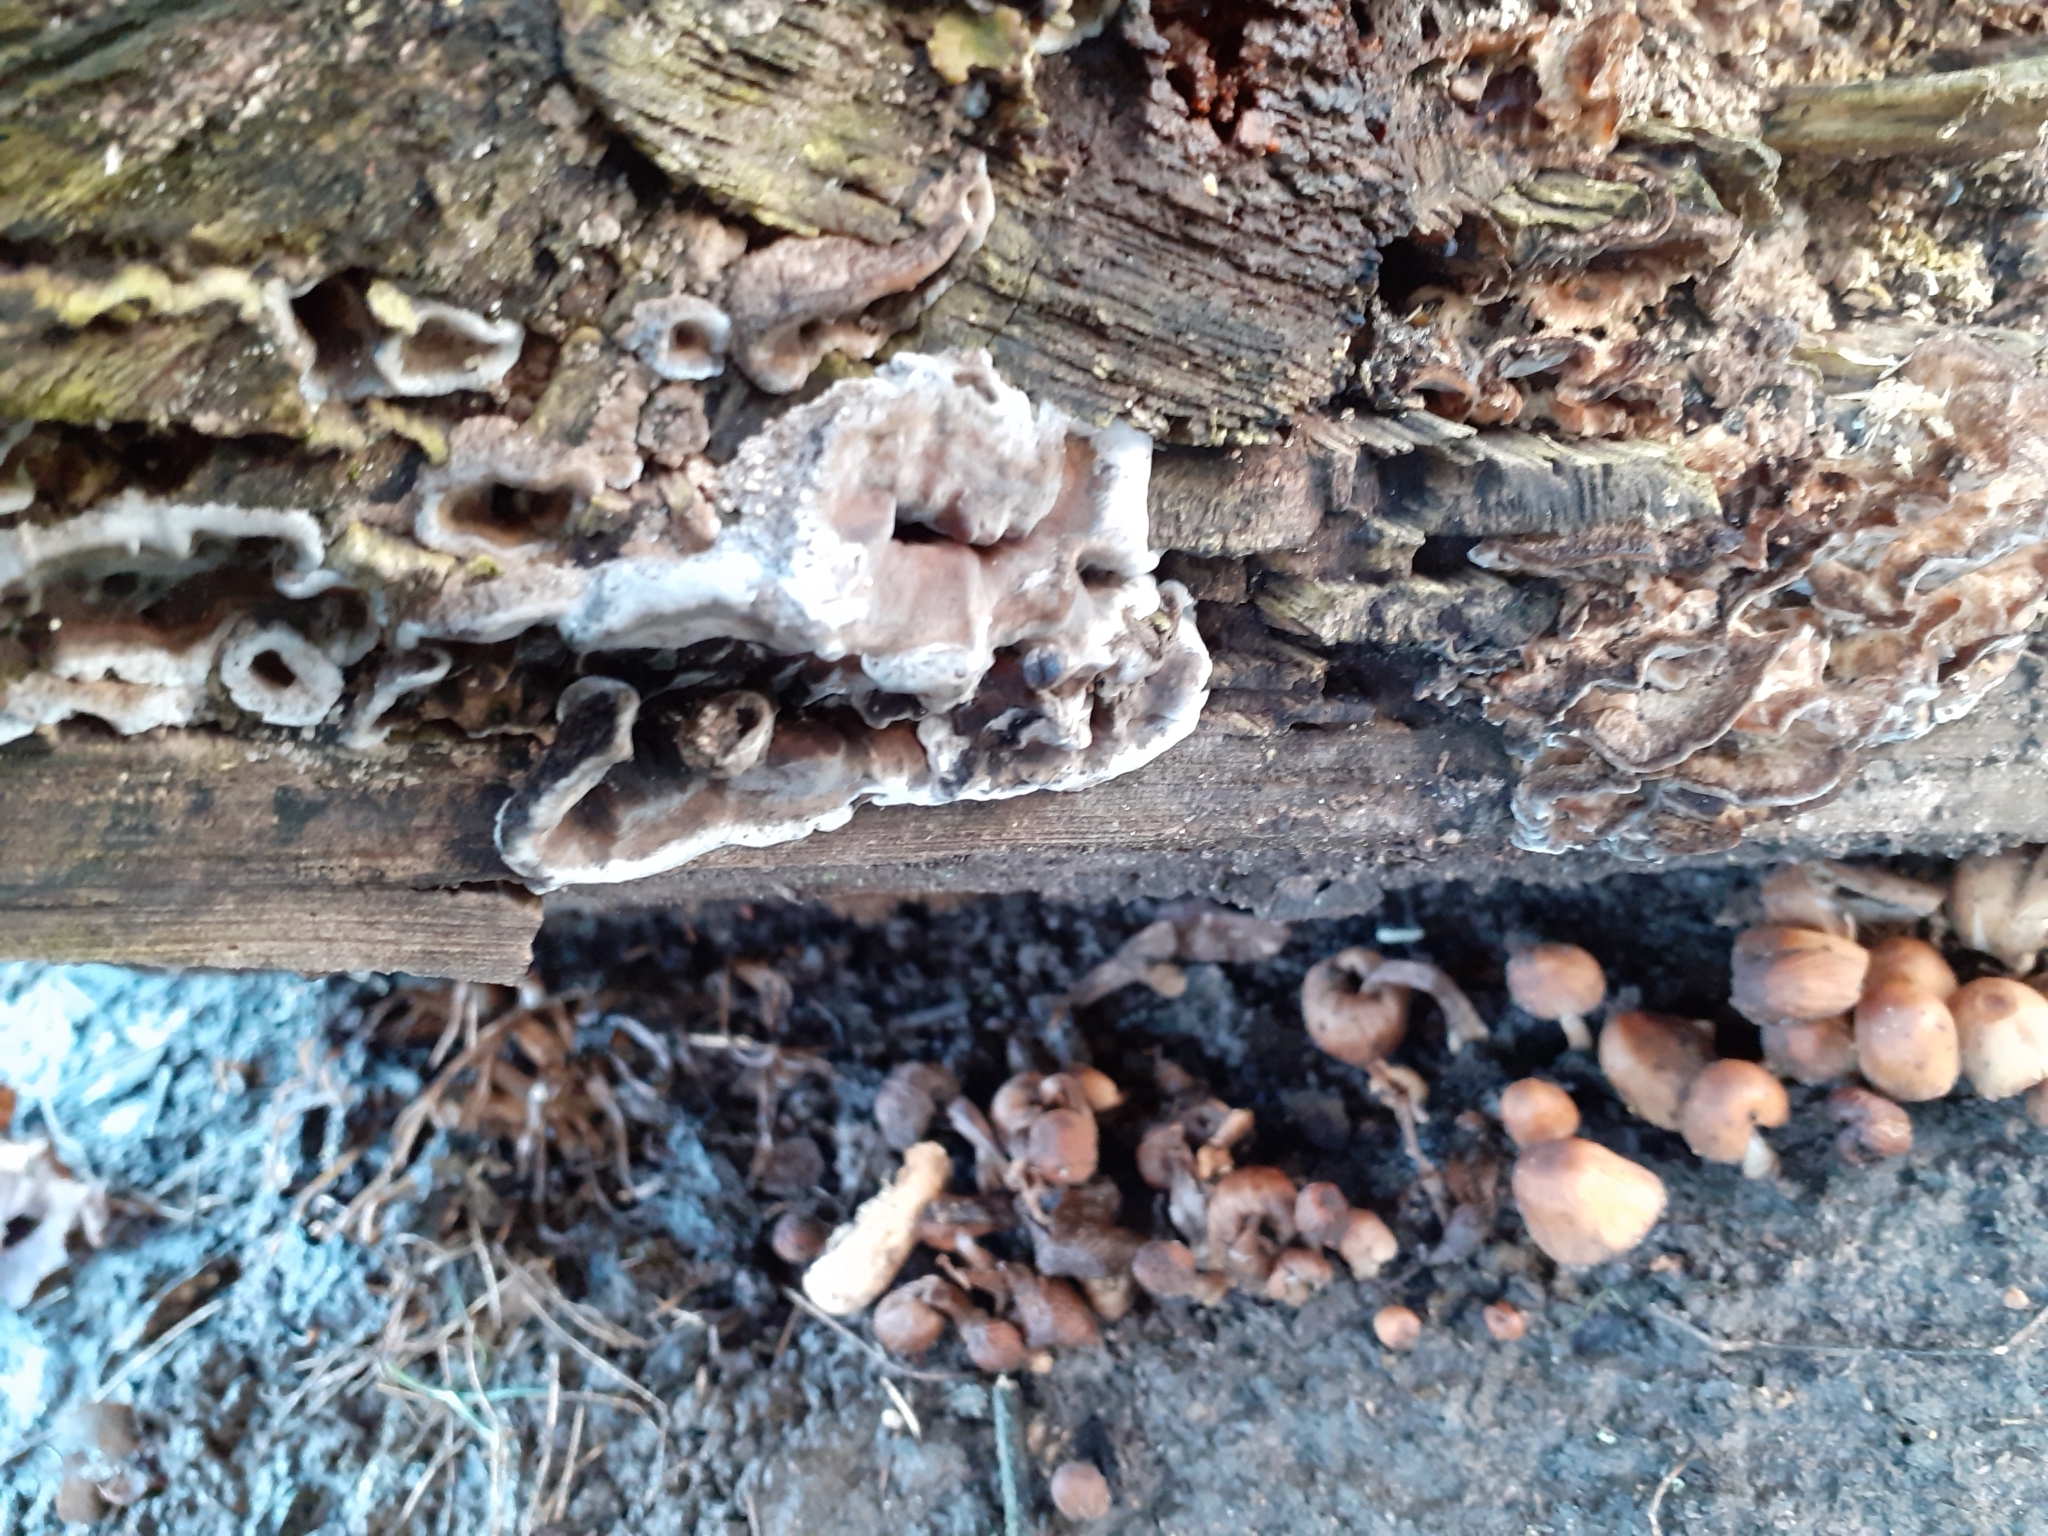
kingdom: Fungi
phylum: Basidiomycota
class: Agaricomycetes
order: Polyporales
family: Phanerochaetaceae
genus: Bjerkandera
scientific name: Bjerkandera adusta
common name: Smoky bracket
